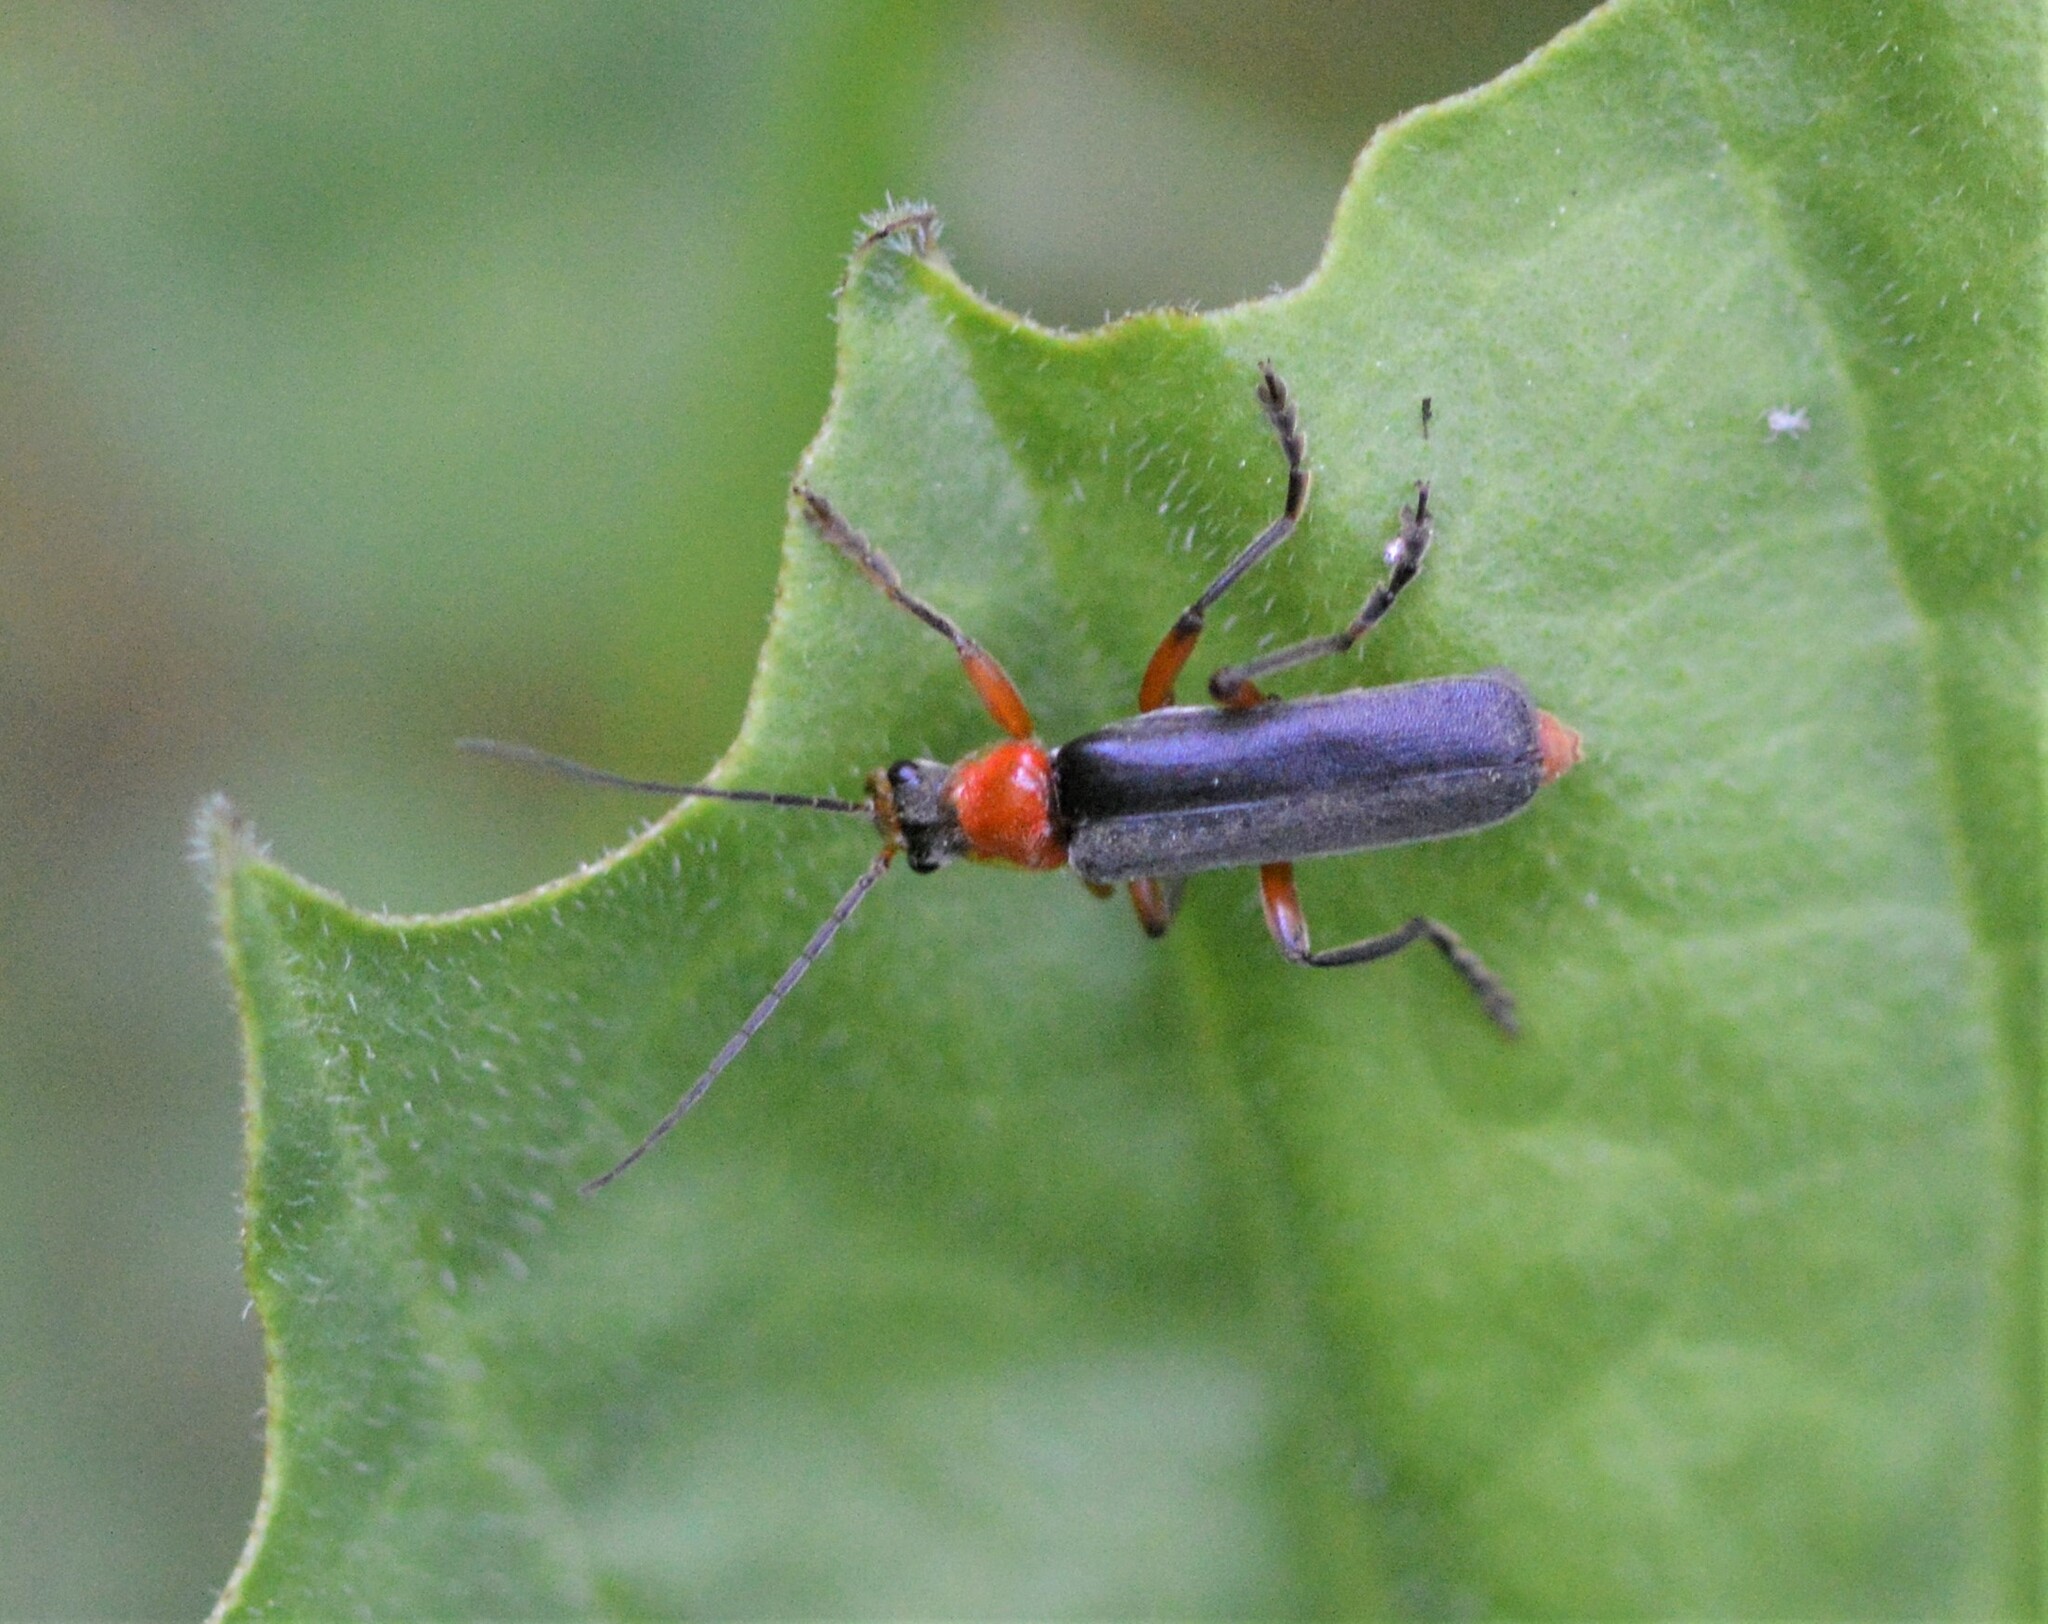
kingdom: Animalia
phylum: Arthropoda
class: Insecta
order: Coleoptera
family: Cantharidae
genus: Cantharis
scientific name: Cantharis pellucida
